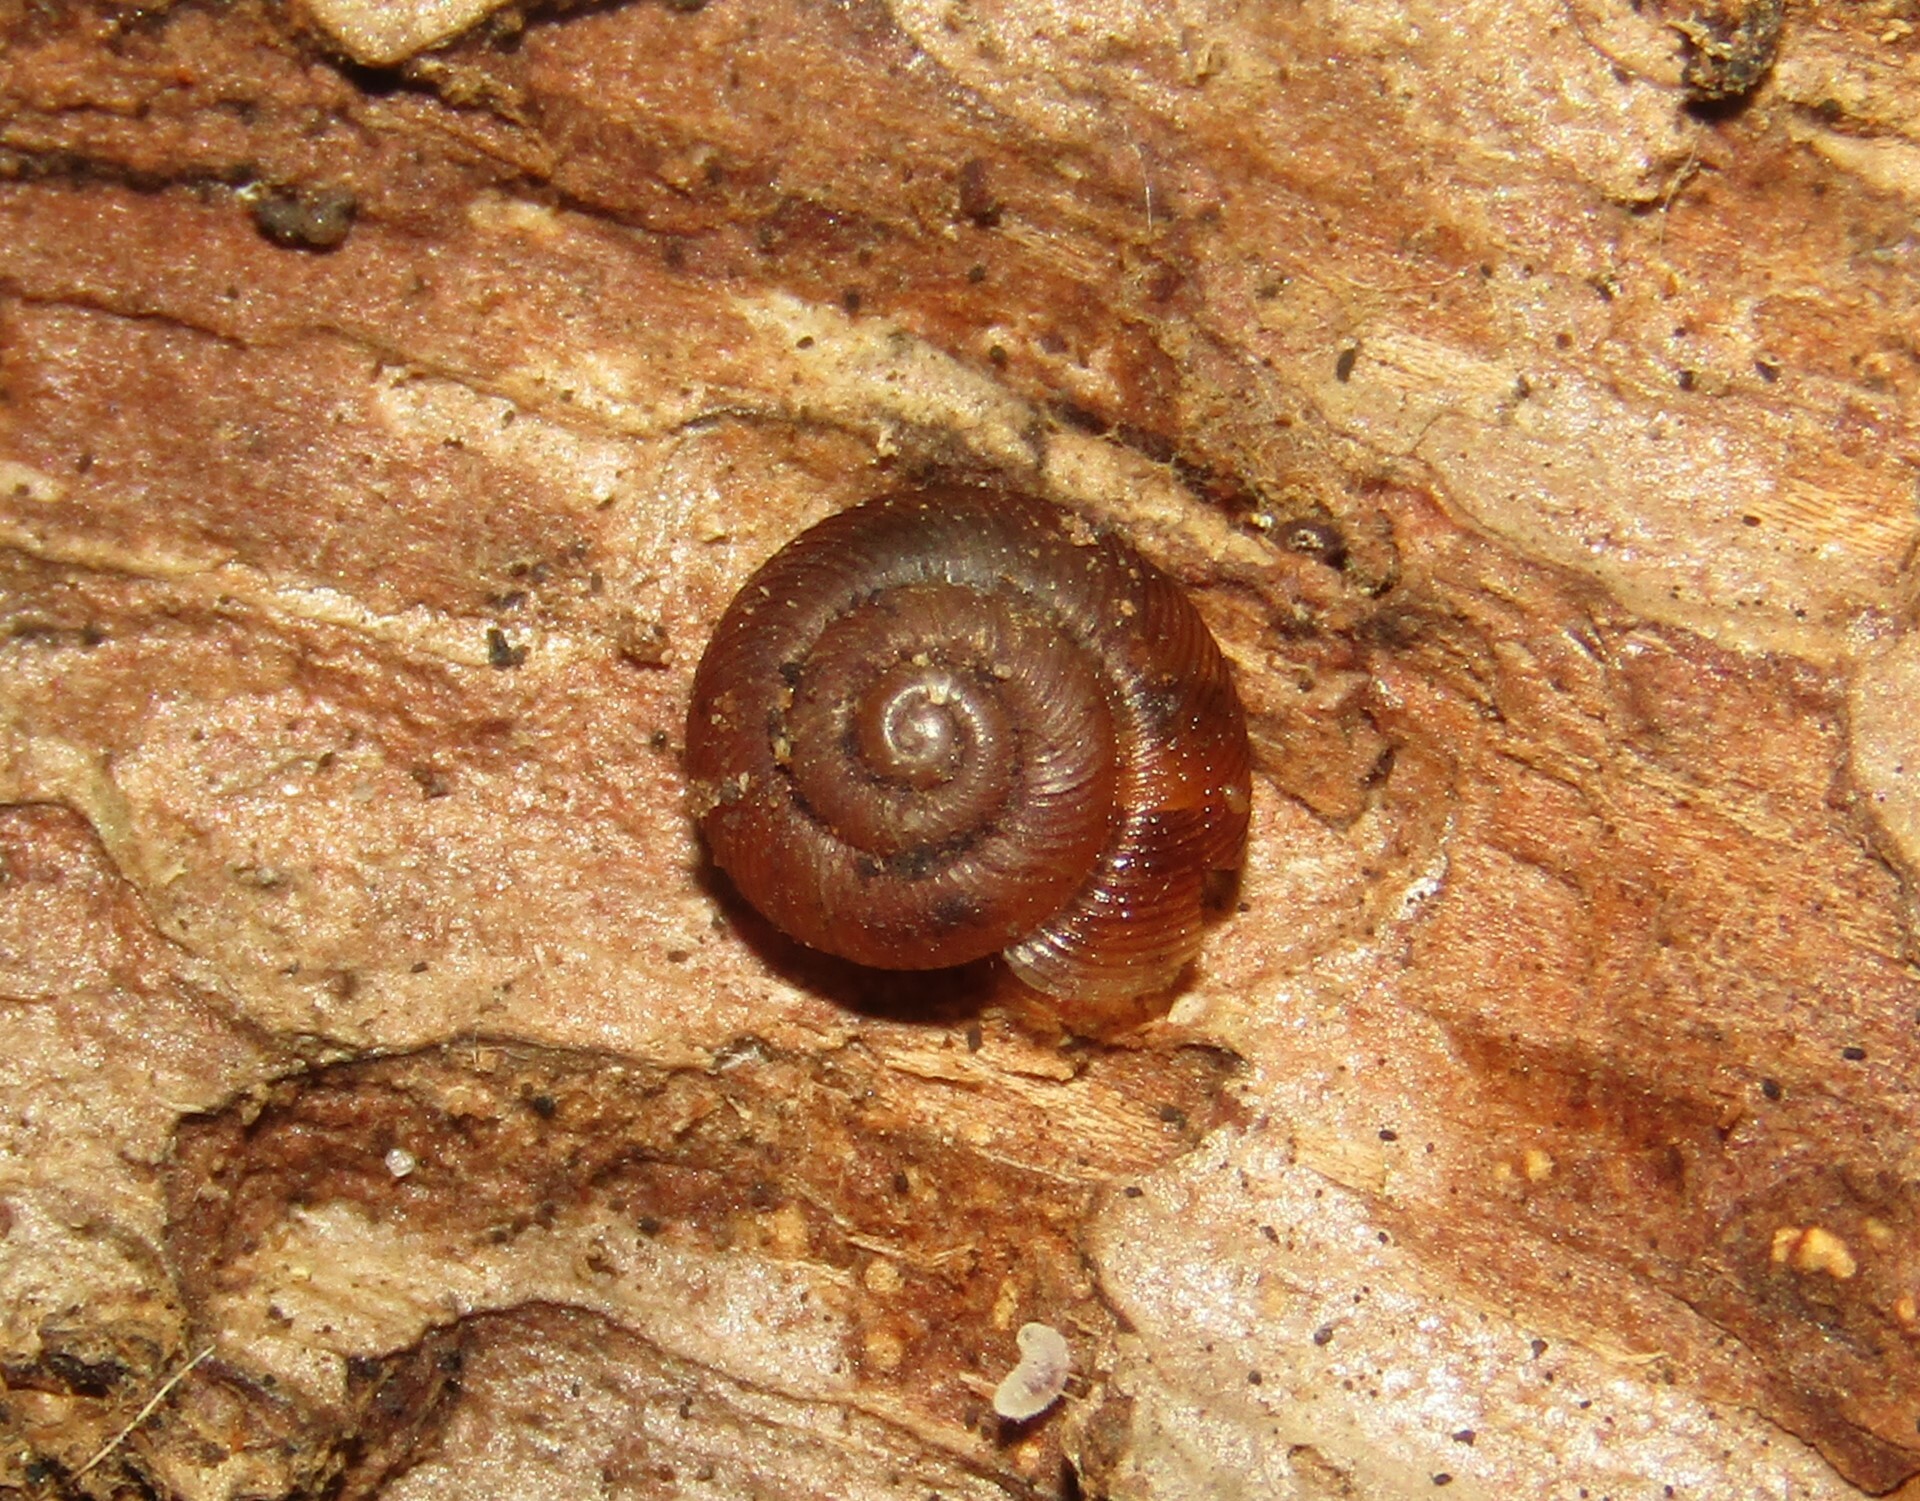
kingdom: Animalia
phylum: Mollusca
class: Gastropoda
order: Stylommatophora
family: Discidae
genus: Discus
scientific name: Discus ruderatus
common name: Brown disc snail
